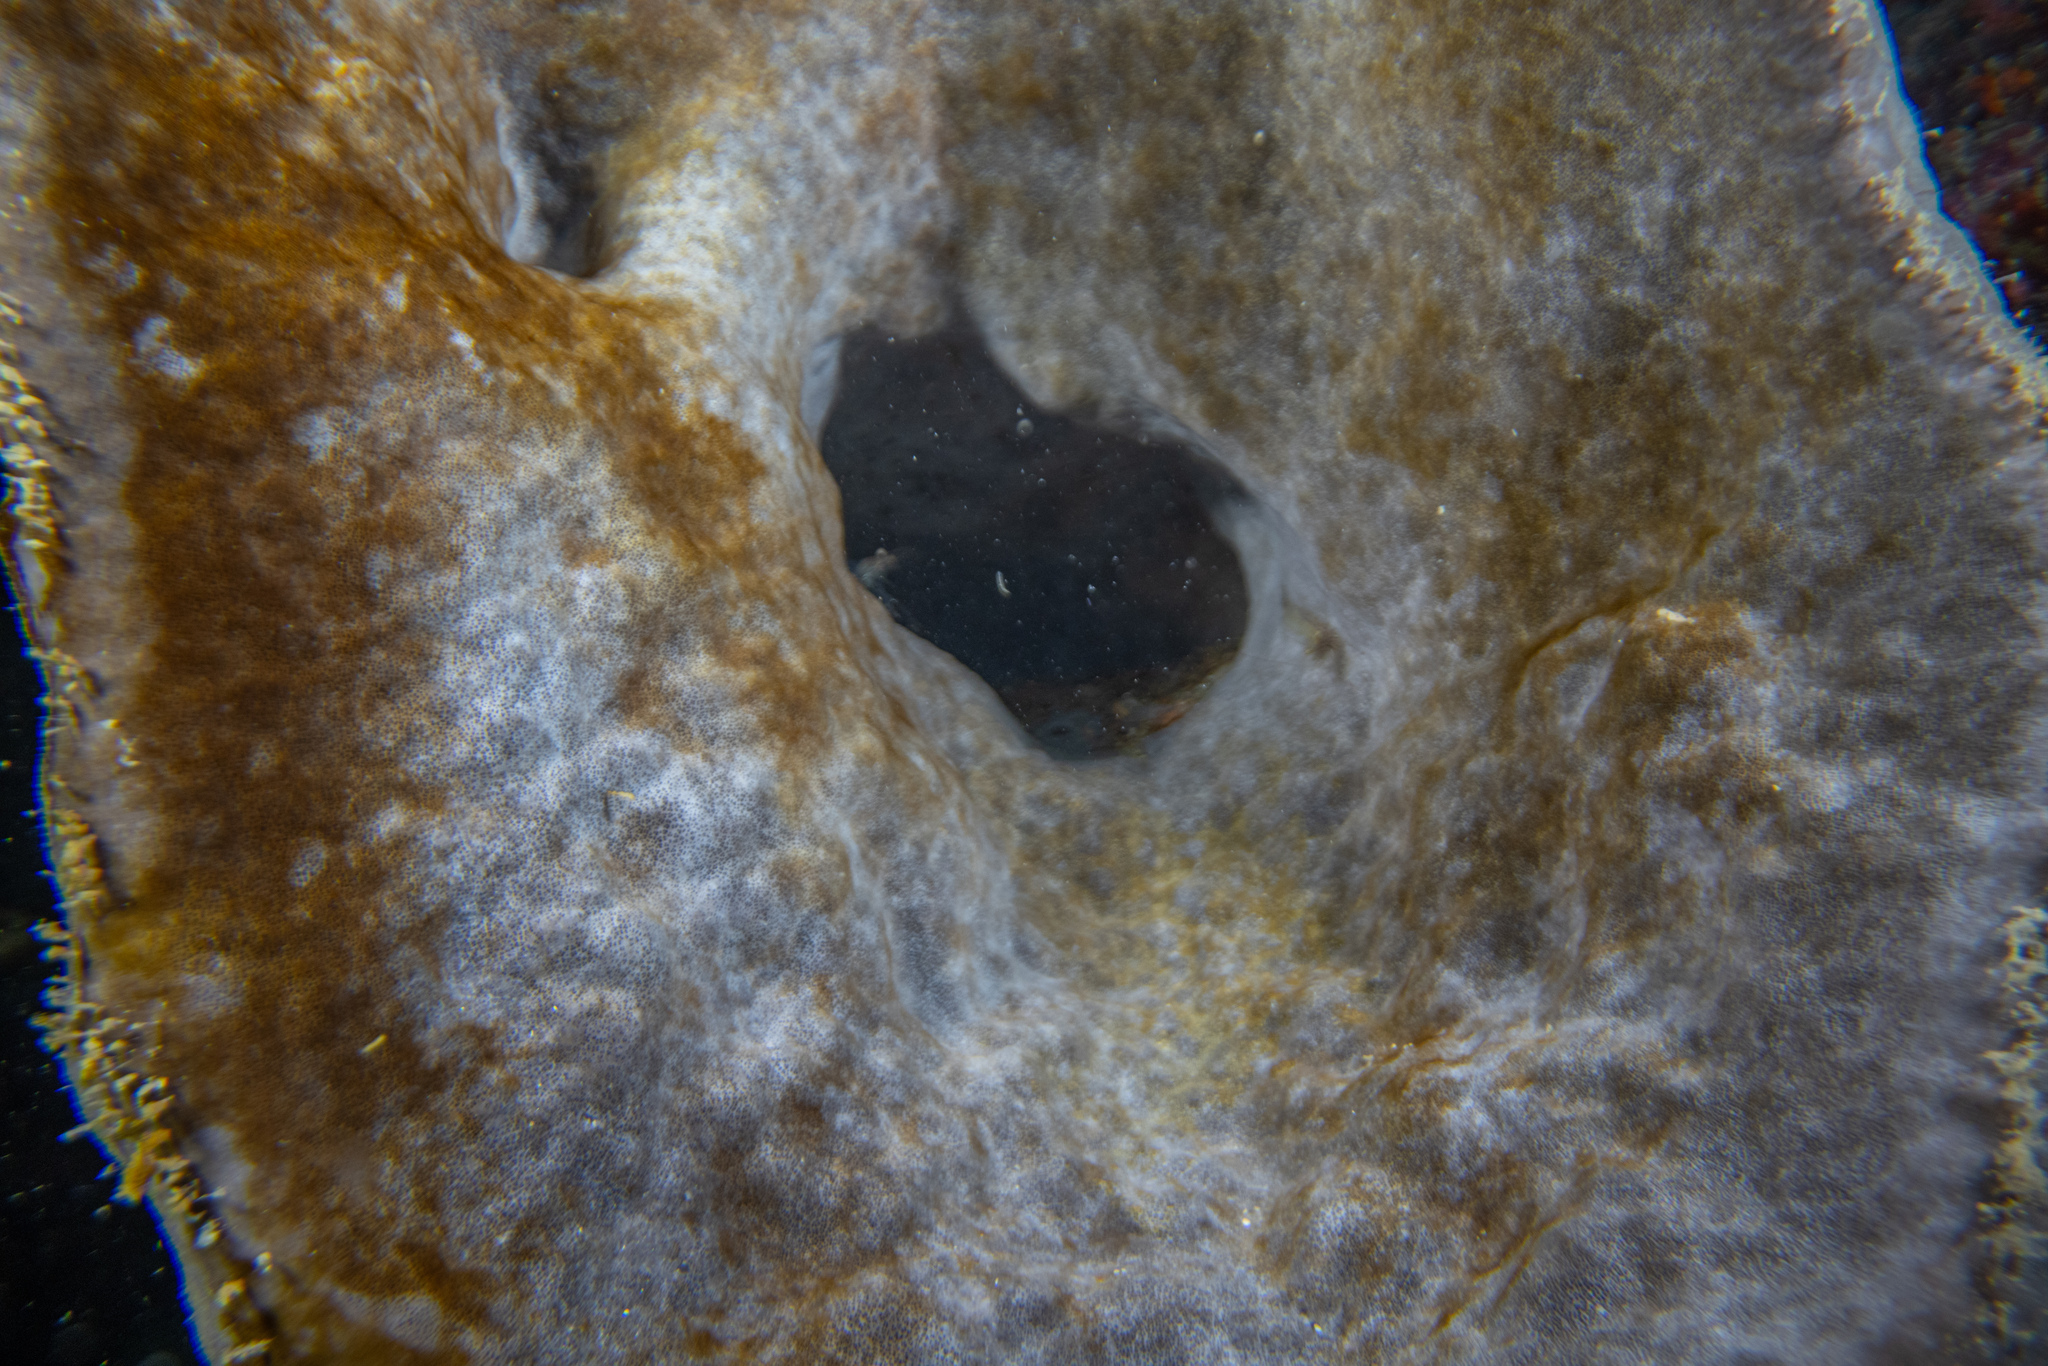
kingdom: Animalia
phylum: Porifera
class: Demospongiae
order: Tetractinellida
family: Ancorinidae
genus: Ecionemia
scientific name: Ecionemia alata
